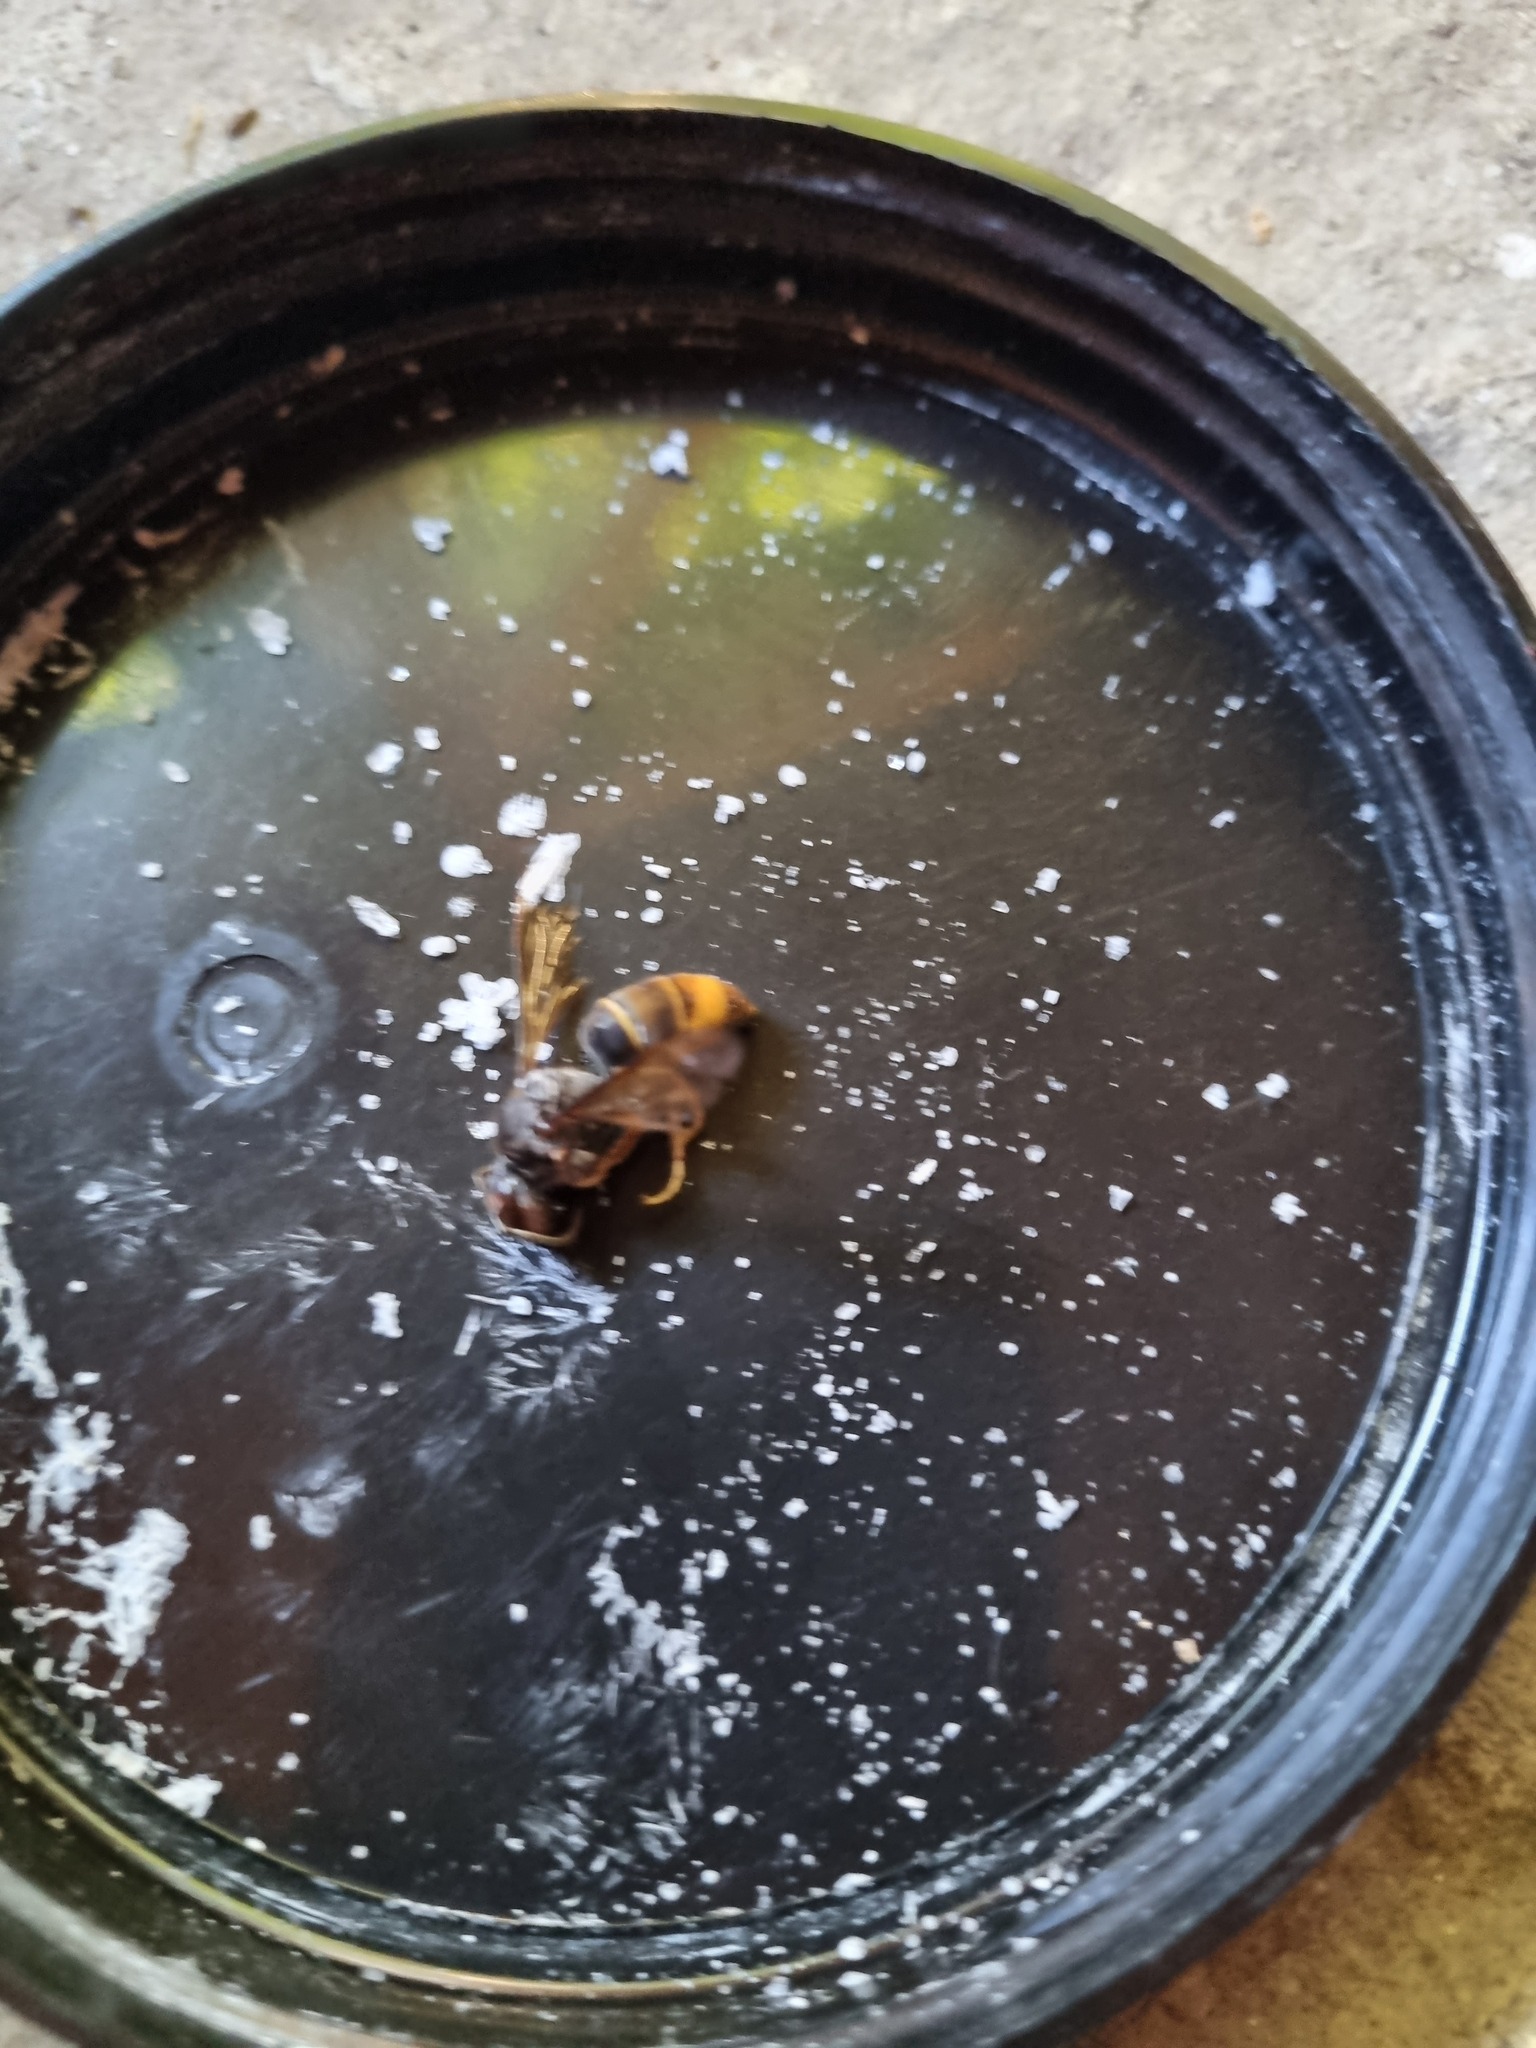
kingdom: Animalia
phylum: Arthropoda
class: Insecta
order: Hymenoptera
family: Vespidae
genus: Vespa
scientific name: Vespa velutina
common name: Asian hornet
